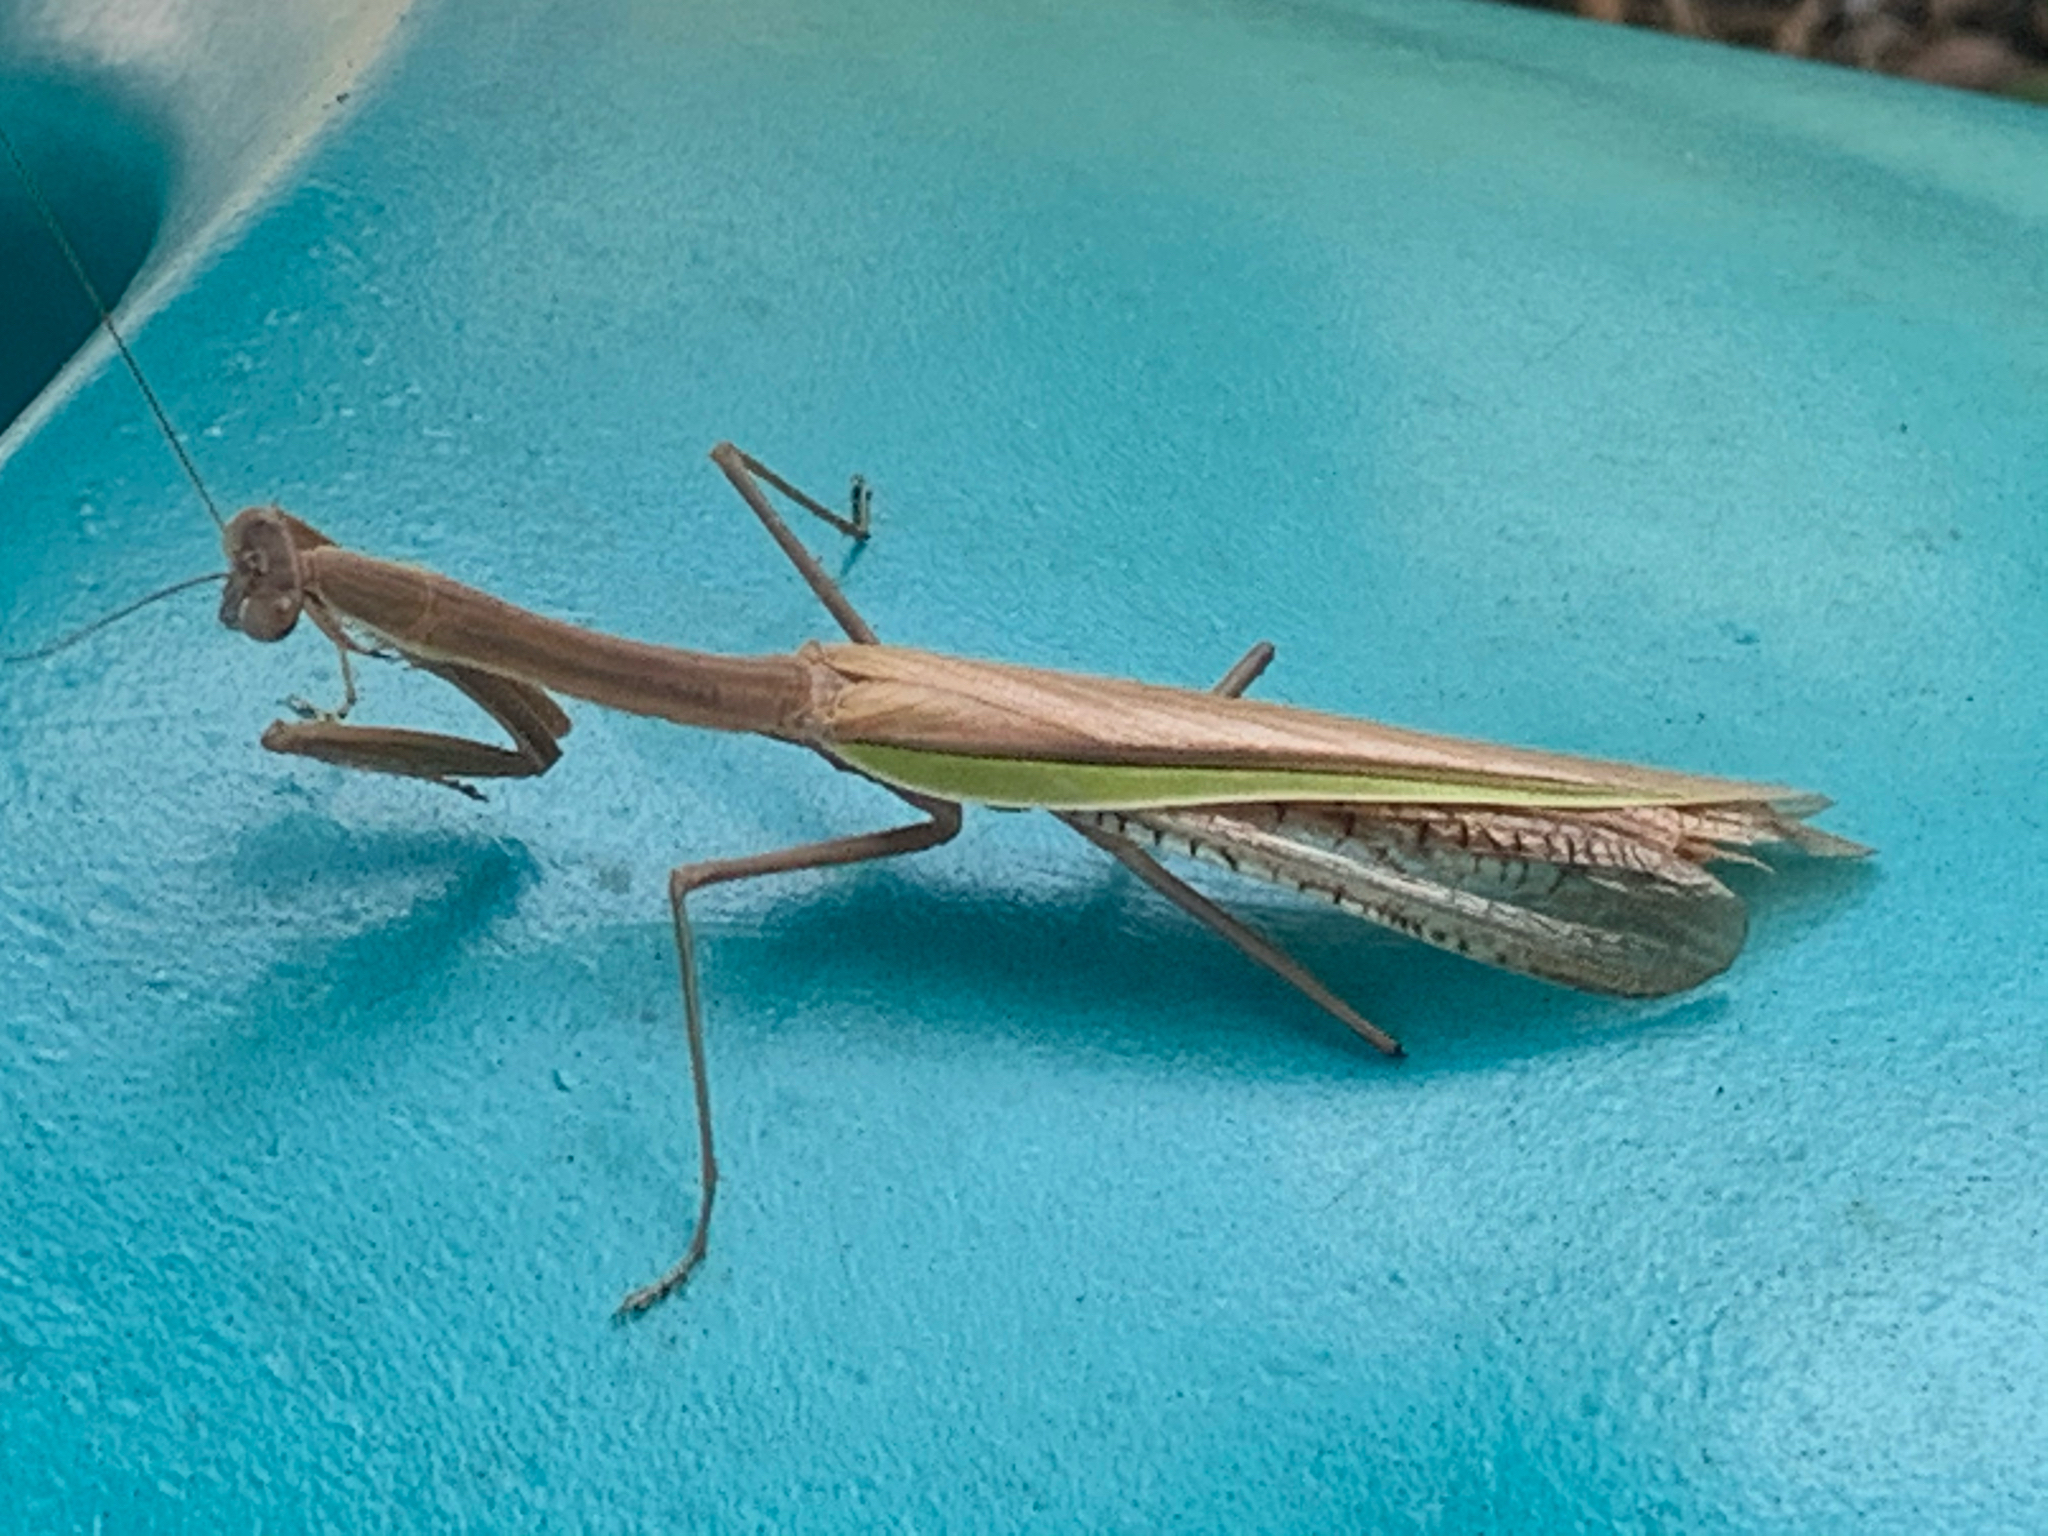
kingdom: Animalia
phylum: Arthropoda
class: Insecta
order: Mantodea
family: Mantidae
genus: Tenodera
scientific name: Tenodera angustipennis
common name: Asian mantis
